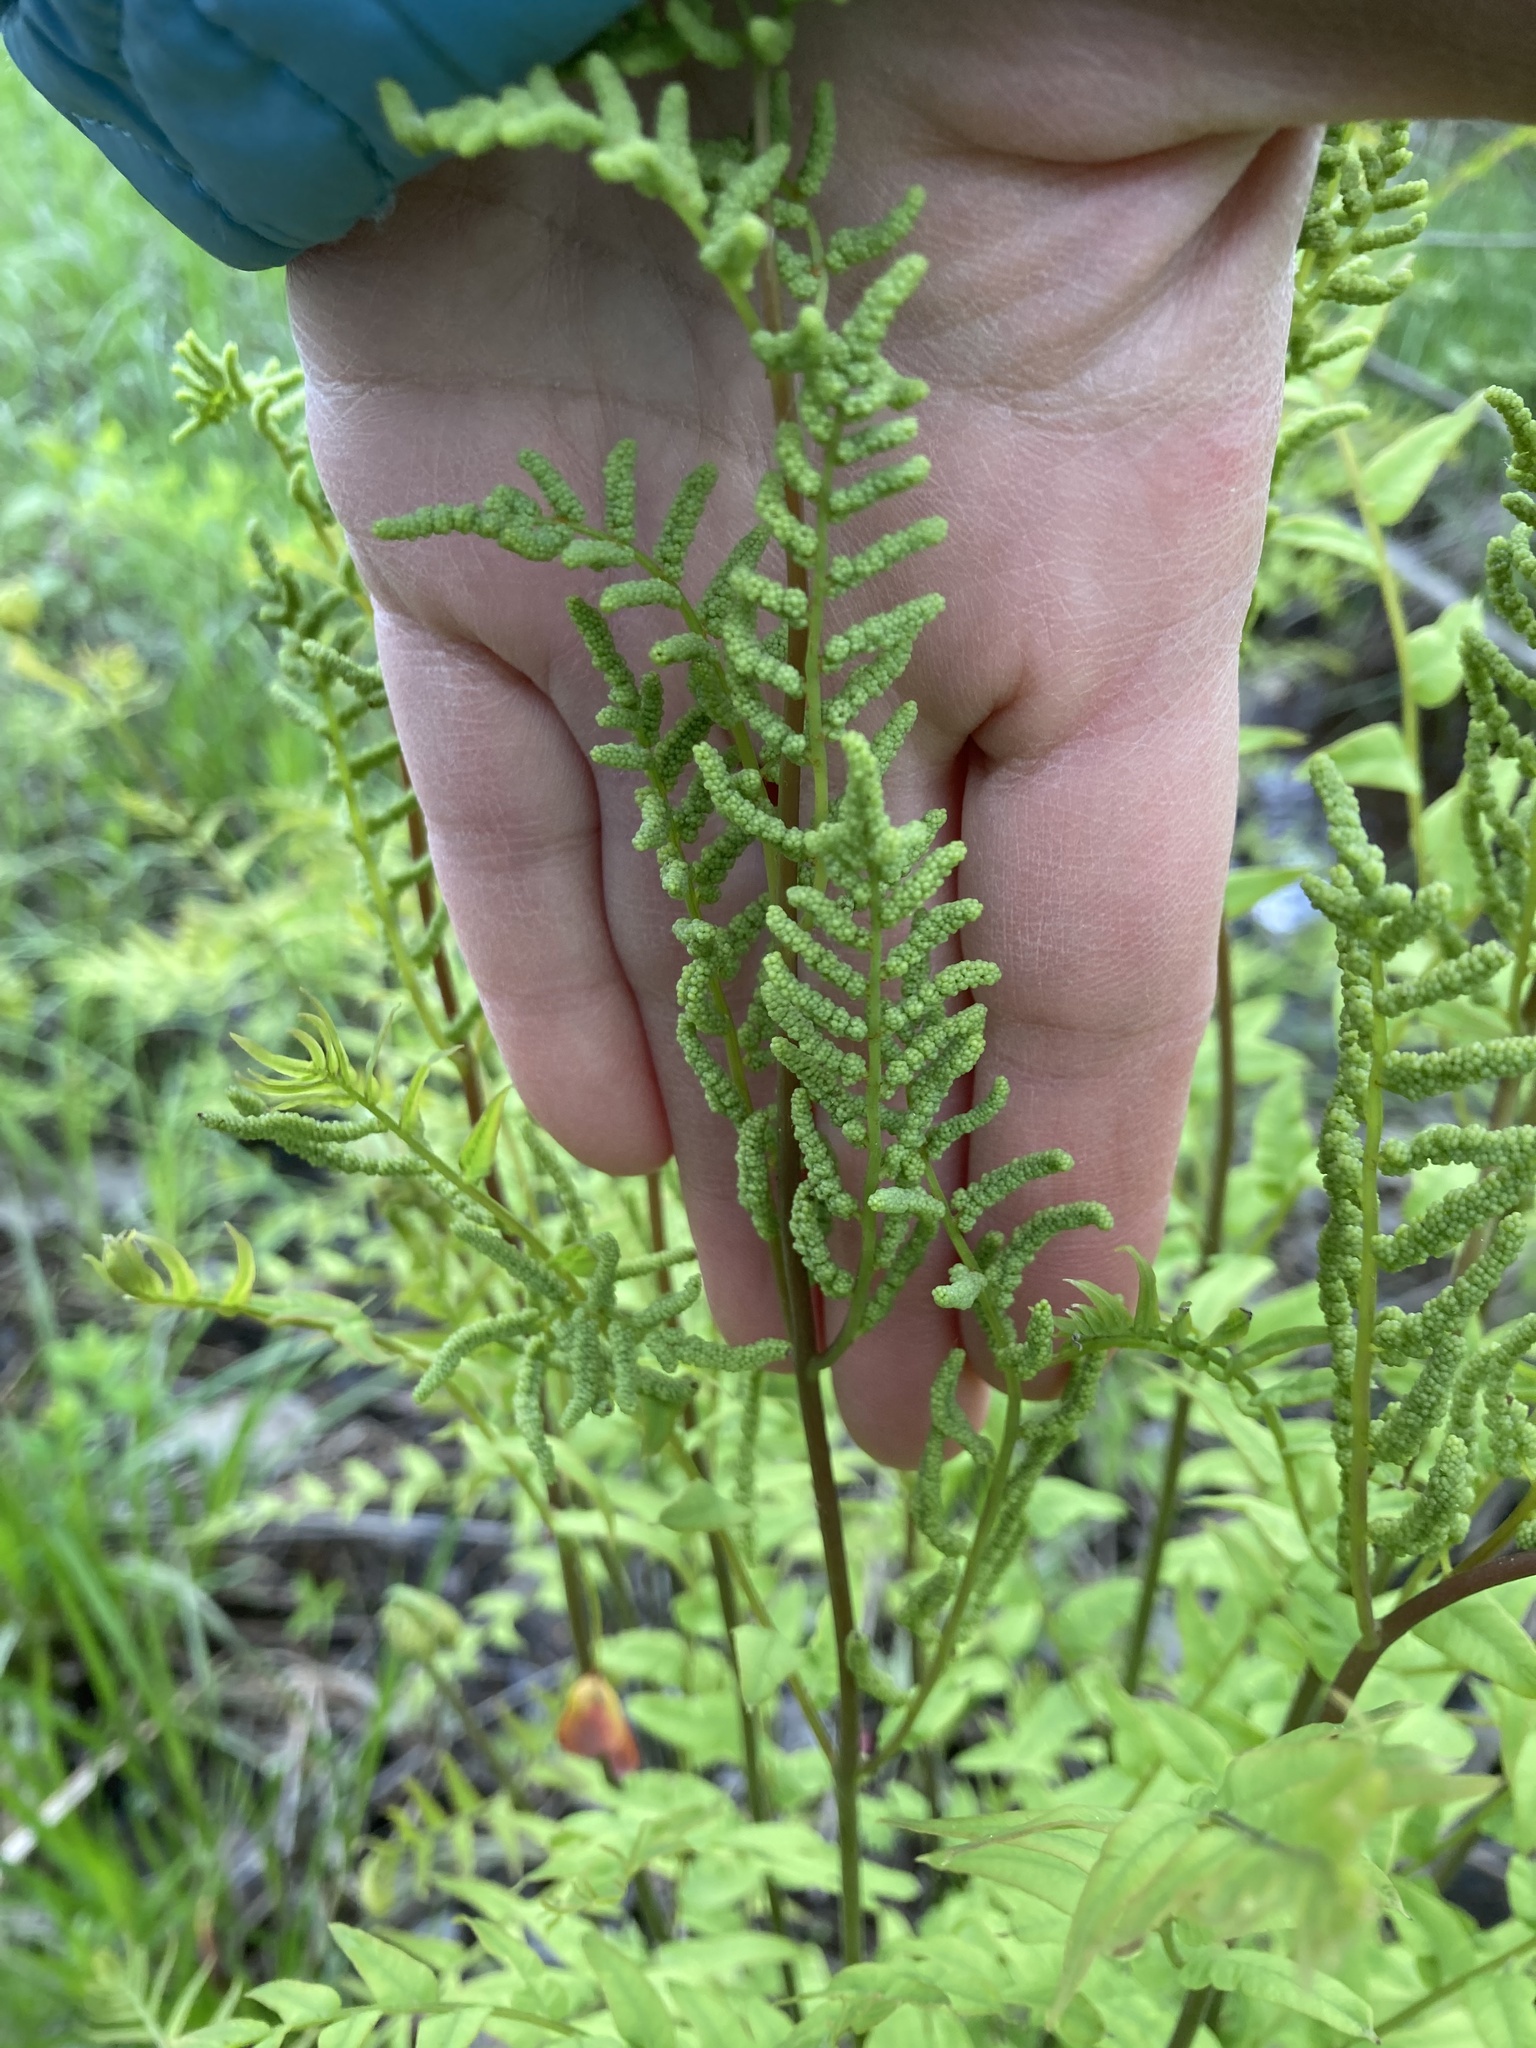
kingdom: Plantae
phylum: Tracheophyta
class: Polypodiopsida
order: Osmundales
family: Osmundaceae
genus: Osmunda
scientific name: Osmunda spectabilis
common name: American royal fern
